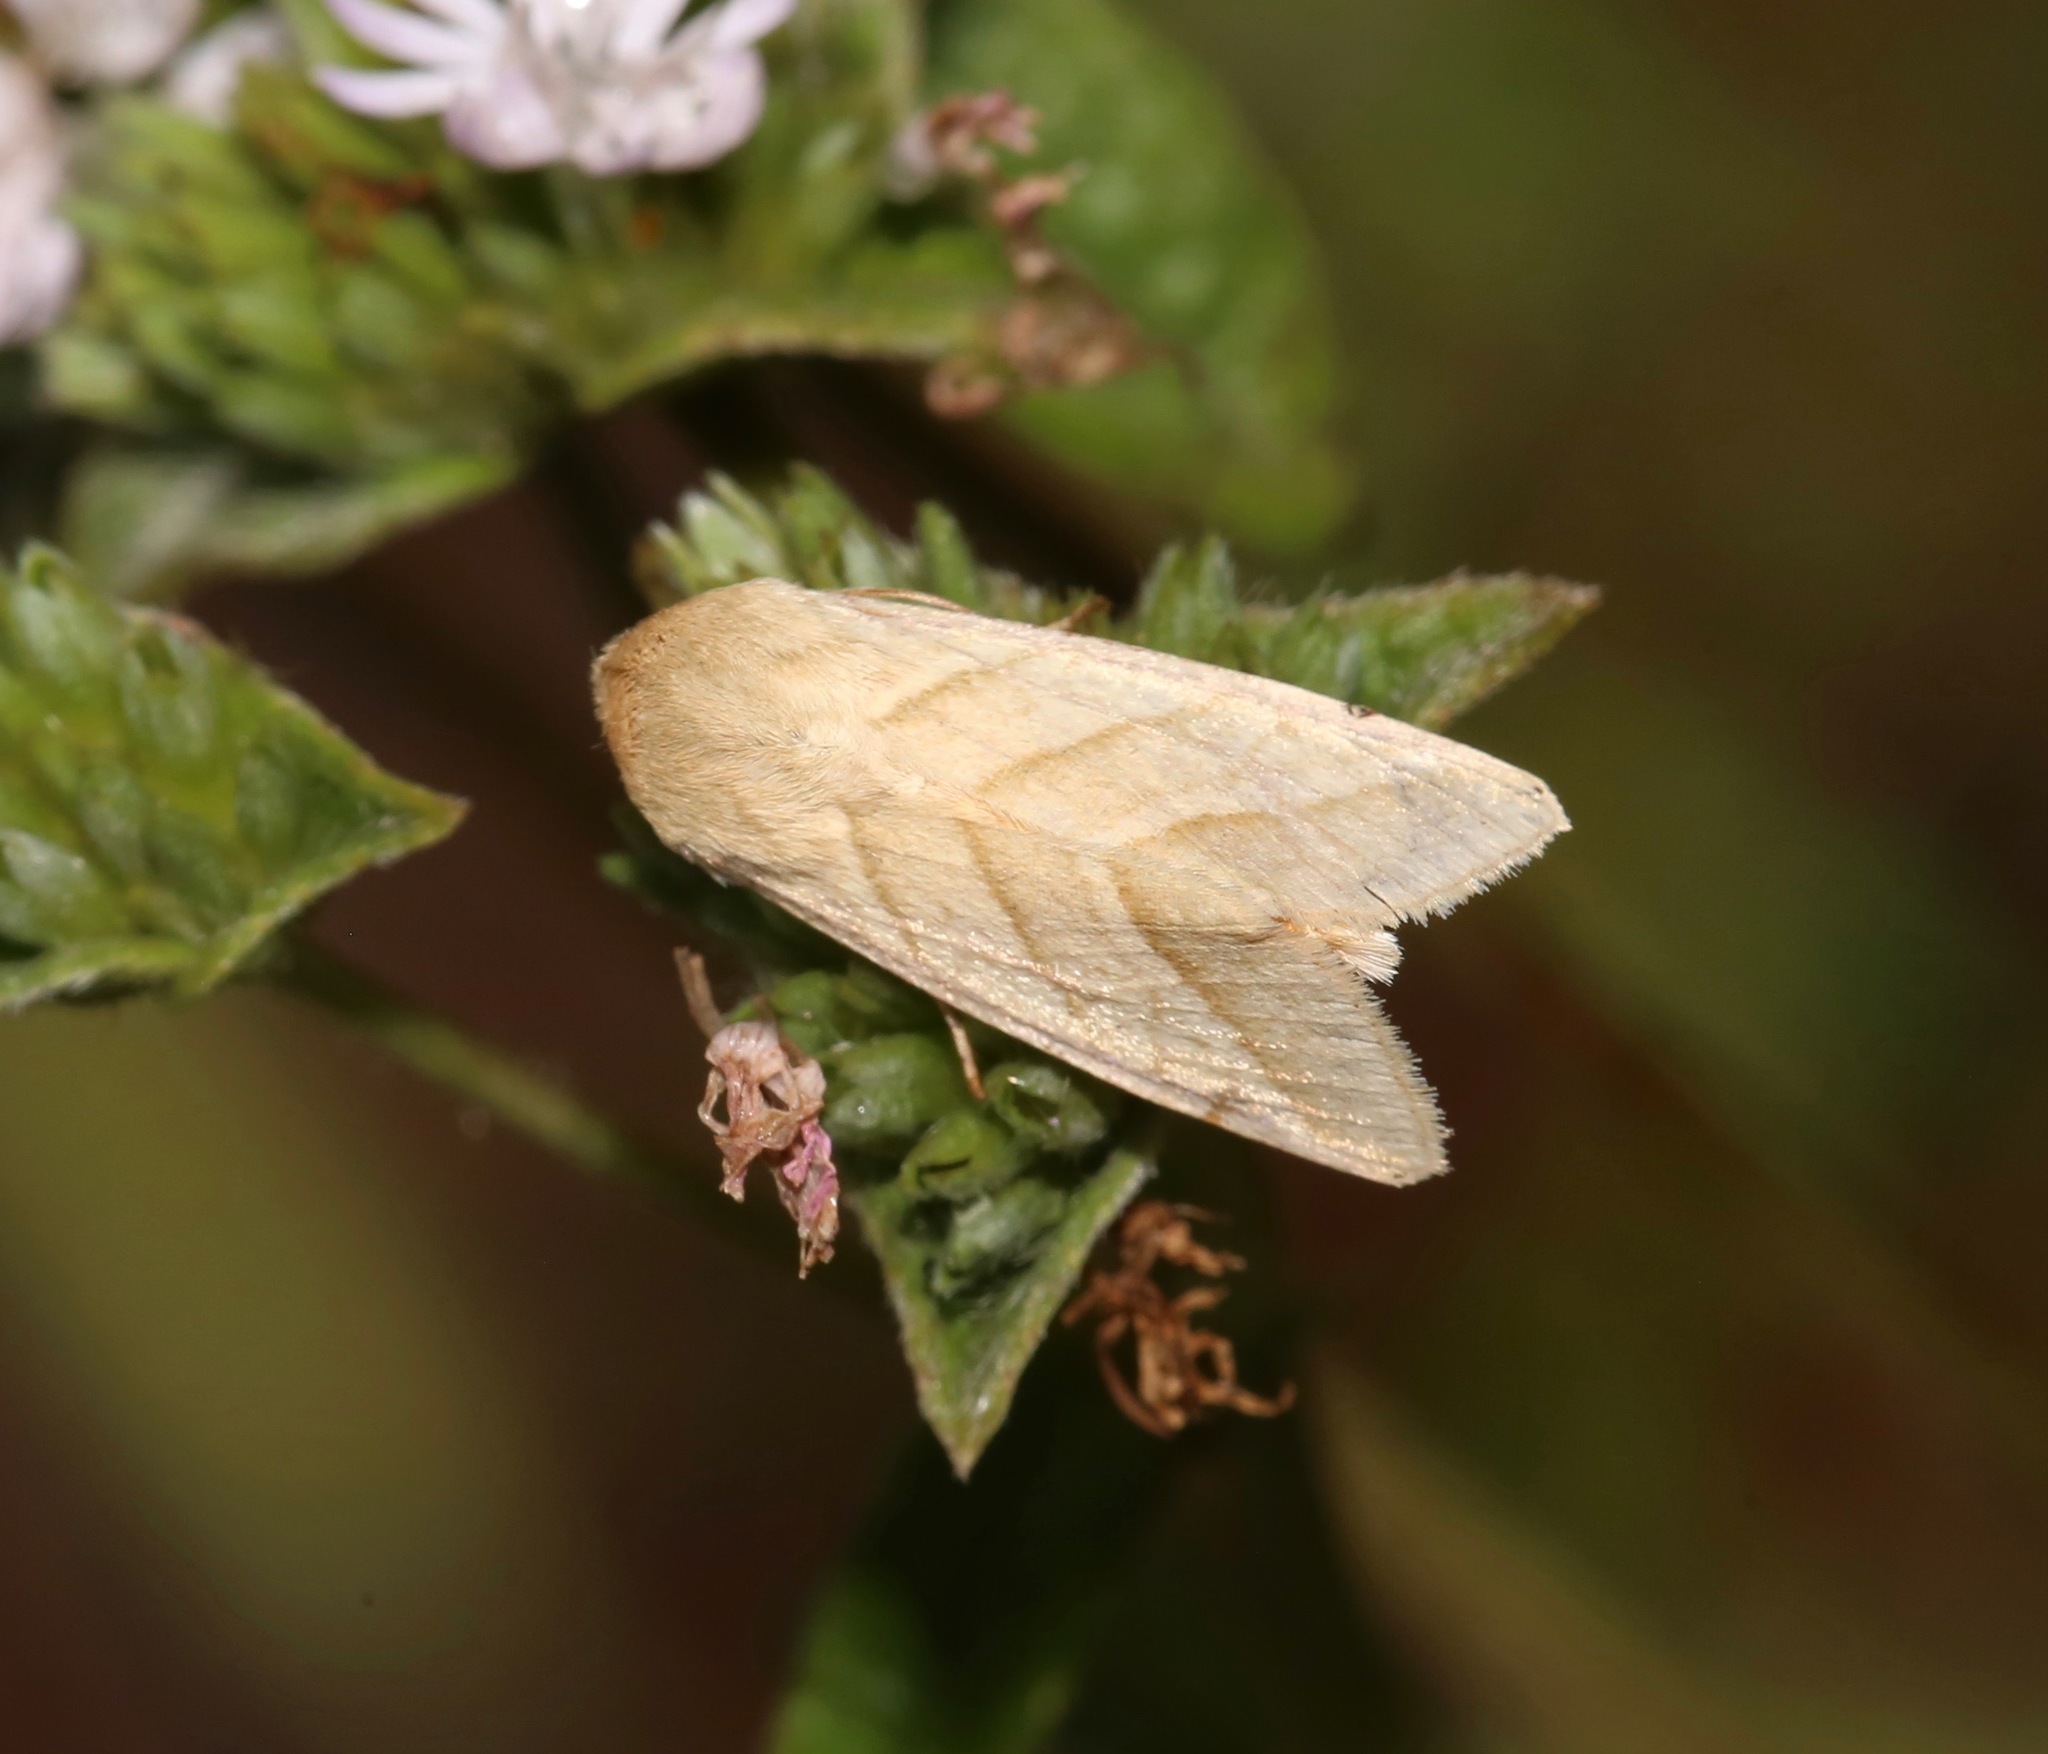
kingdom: Animalia
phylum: Arthropoda
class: Insecta
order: Lepidoptera
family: Noctuidae
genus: Chloridea
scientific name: Chloridea virescens
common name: Tobacco budworm
